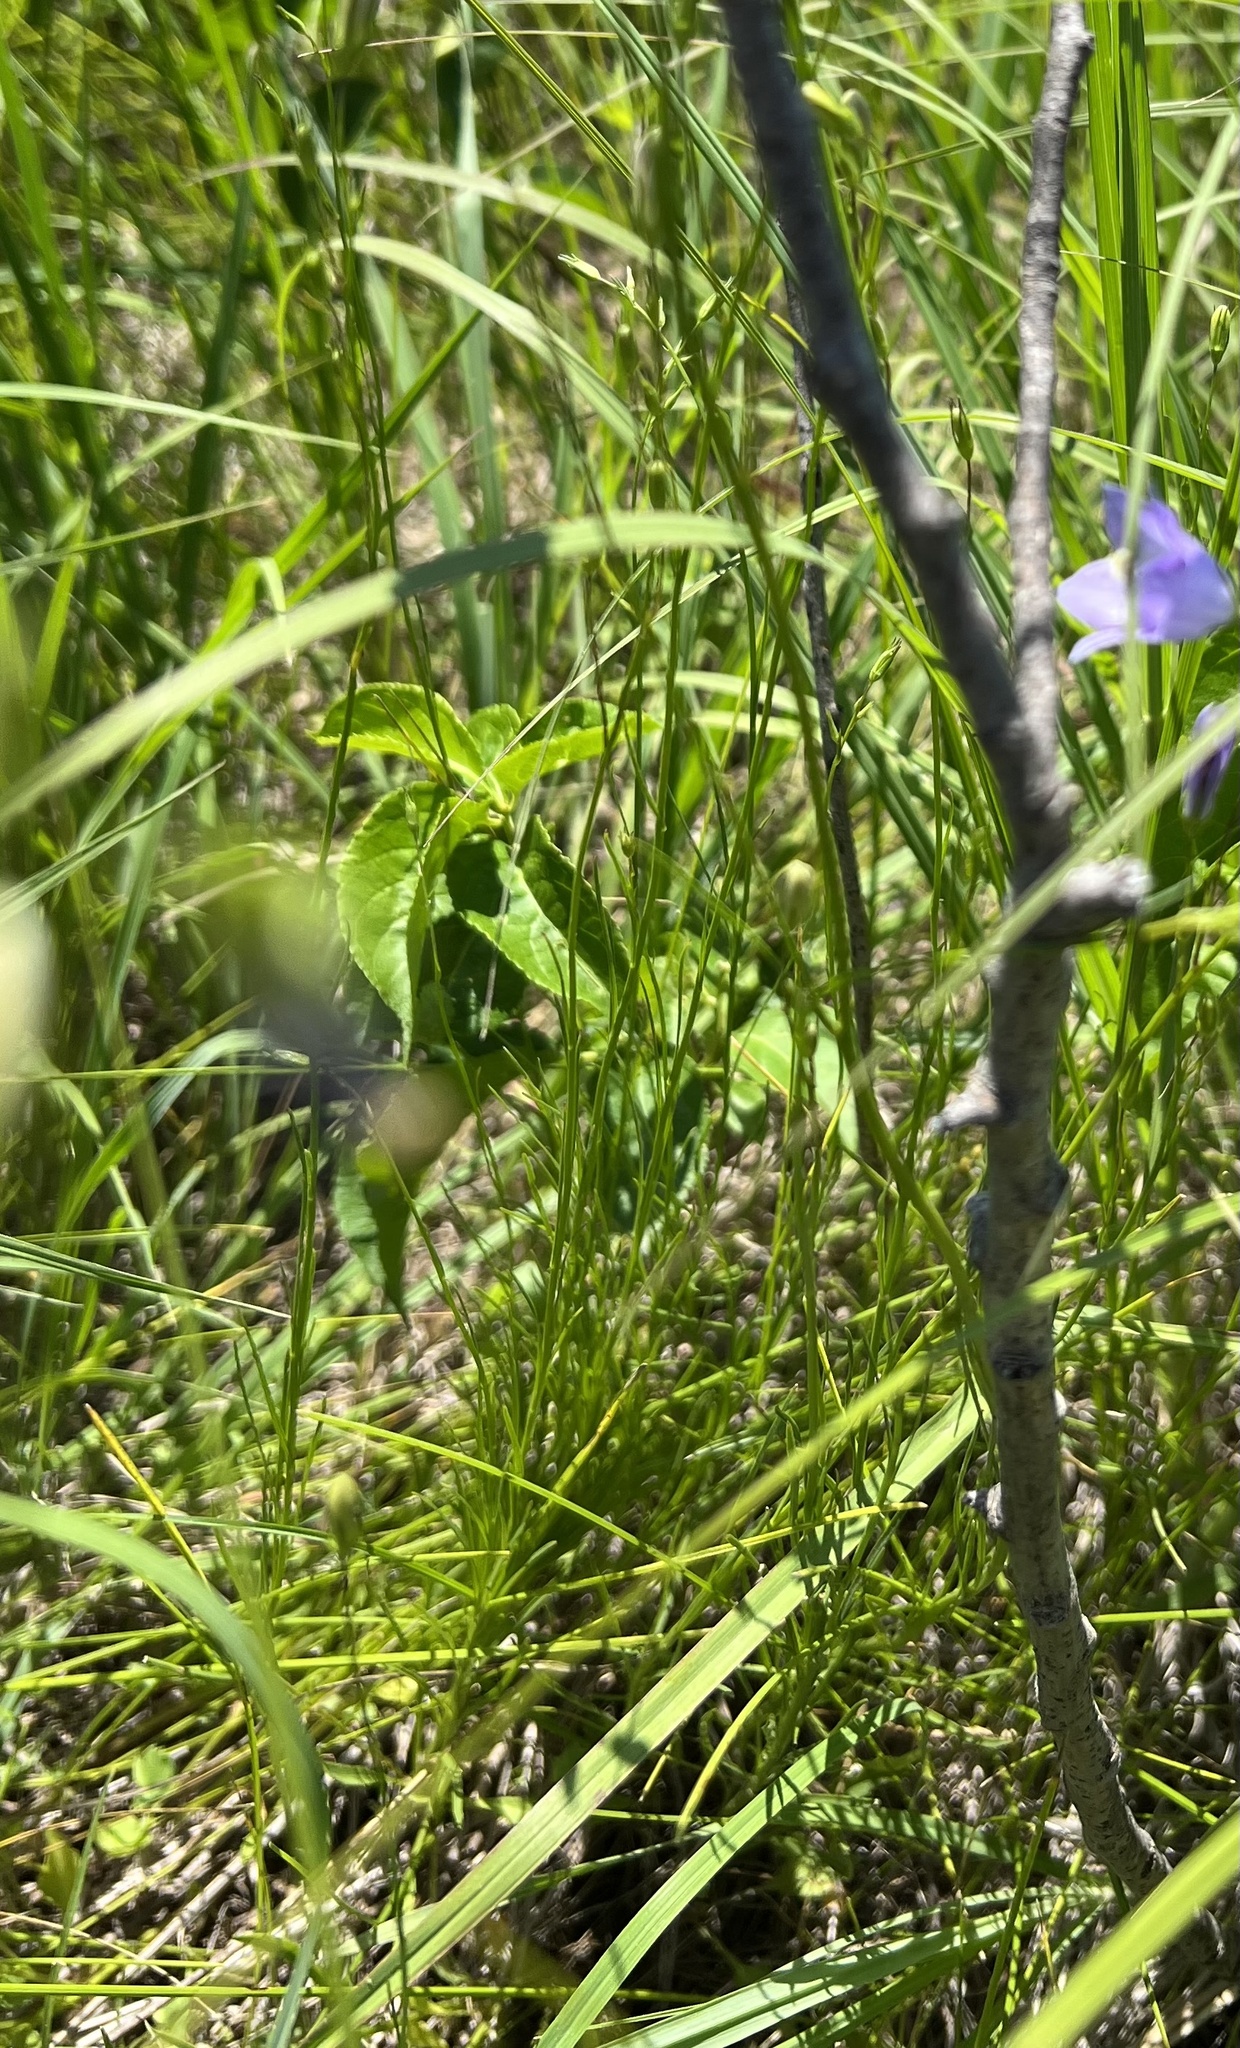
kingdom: Plantae
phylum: Tracheophyta
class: Magnoliopsida
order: Asterales
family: Campanulaceae
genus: Campanula
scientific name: Campanula intercedens
